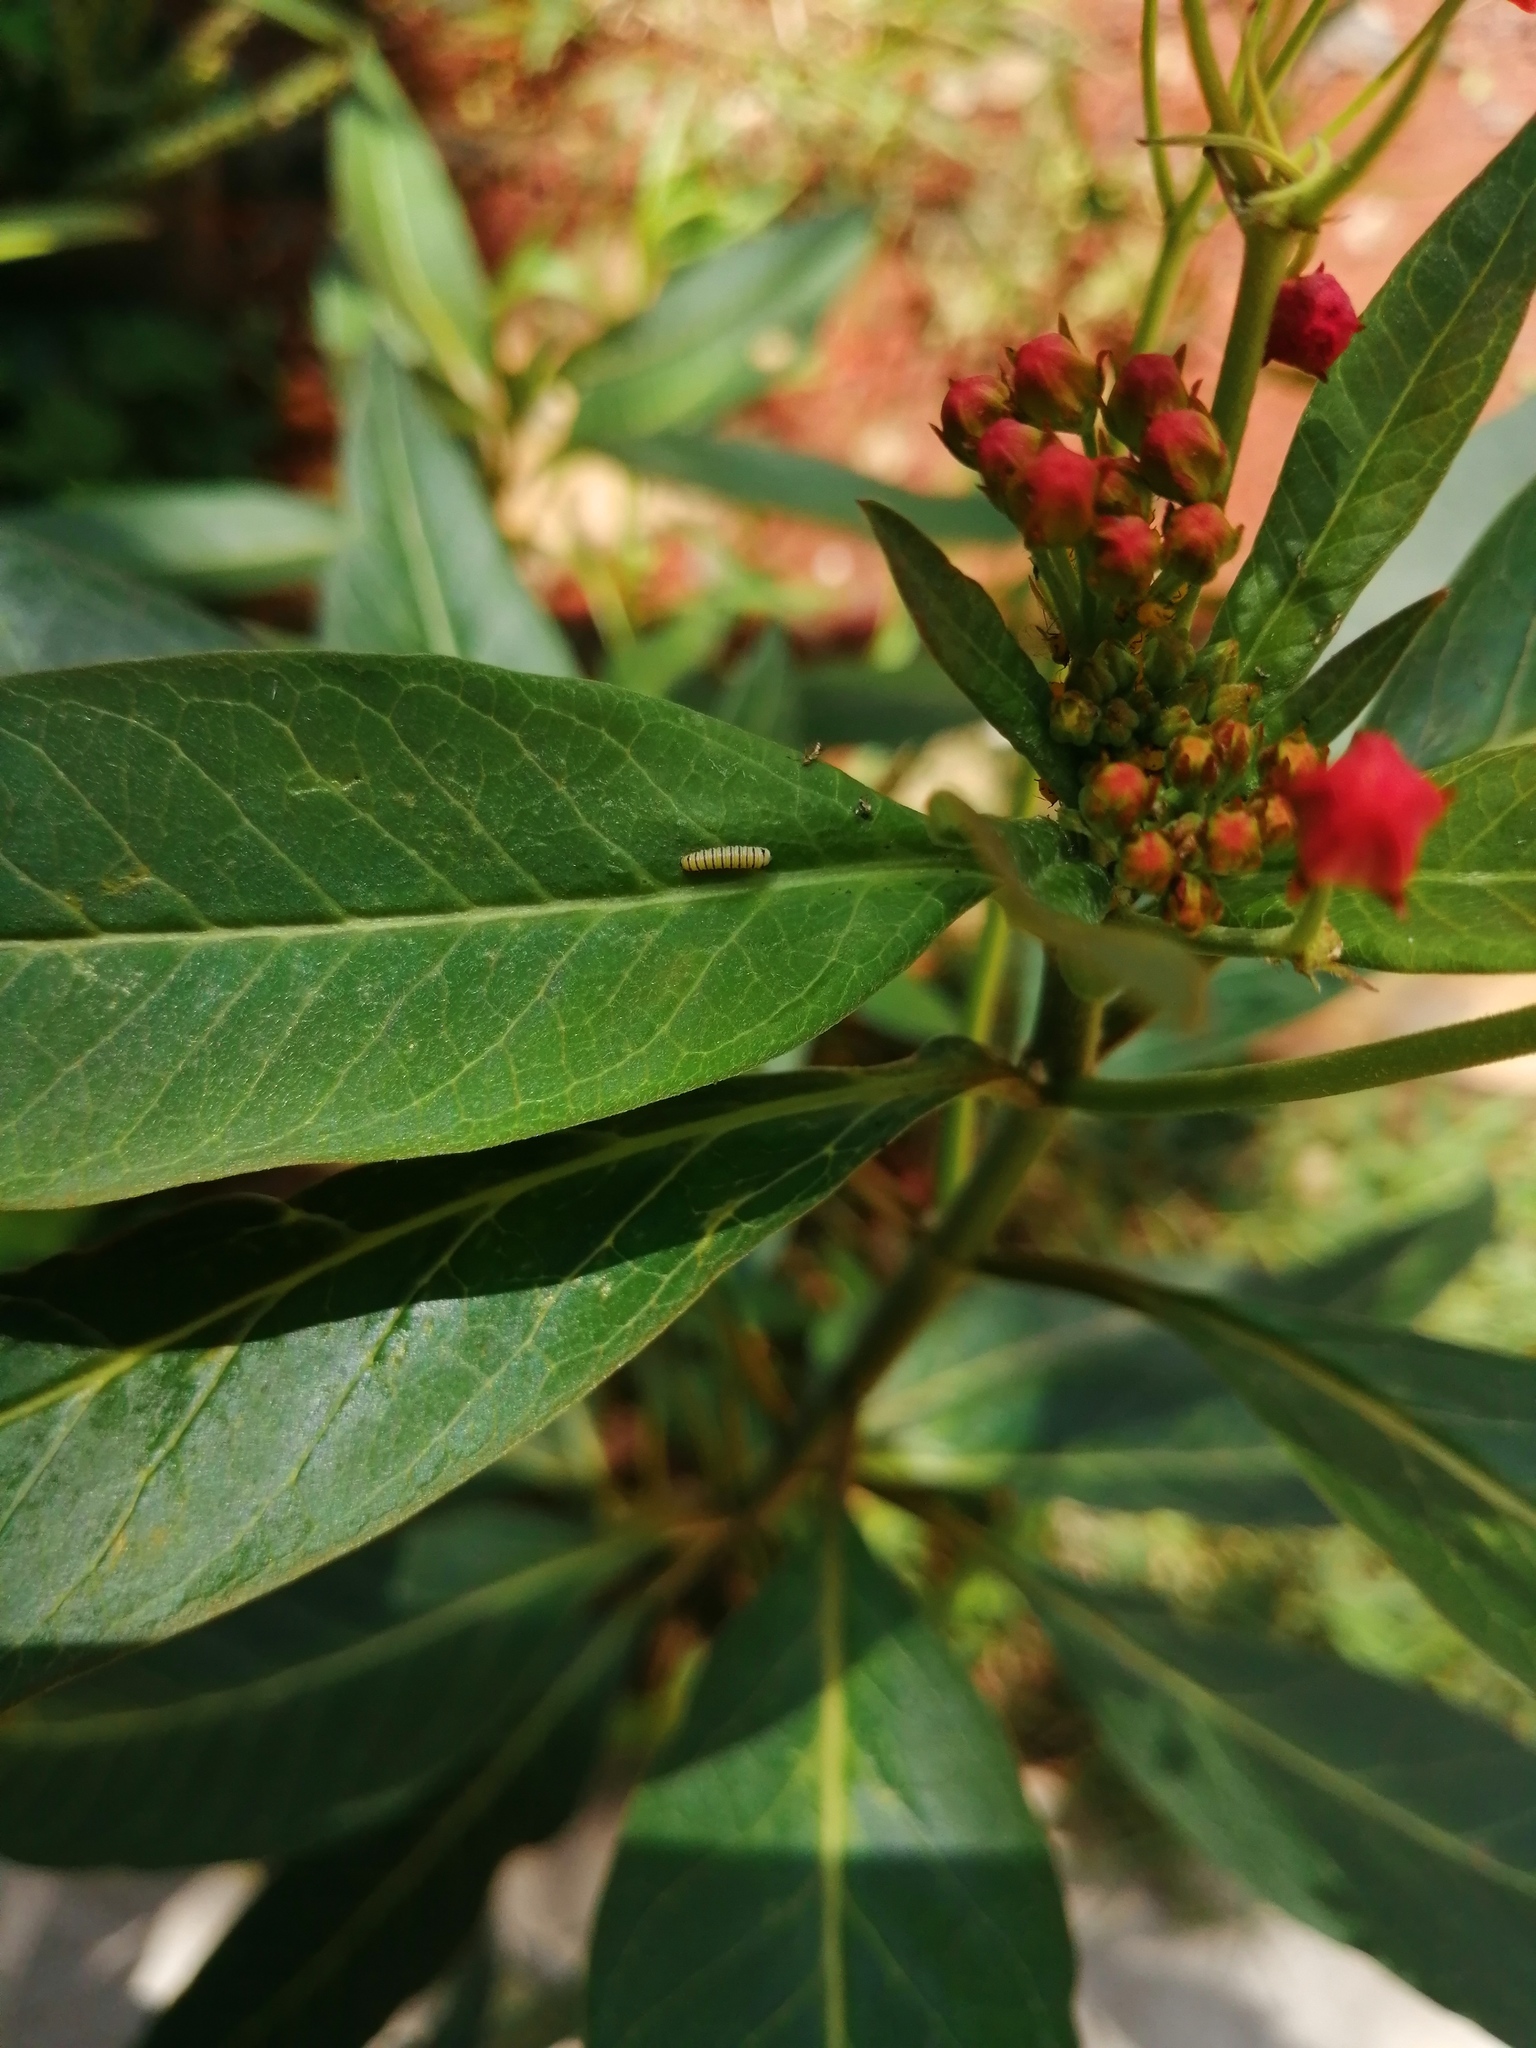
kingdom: Animalia
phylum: Arthropoda
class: Insecta
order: Lepidoptera
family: Nymphalidae
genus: Danaus
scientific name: Danaus plexippus
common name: Monarch
